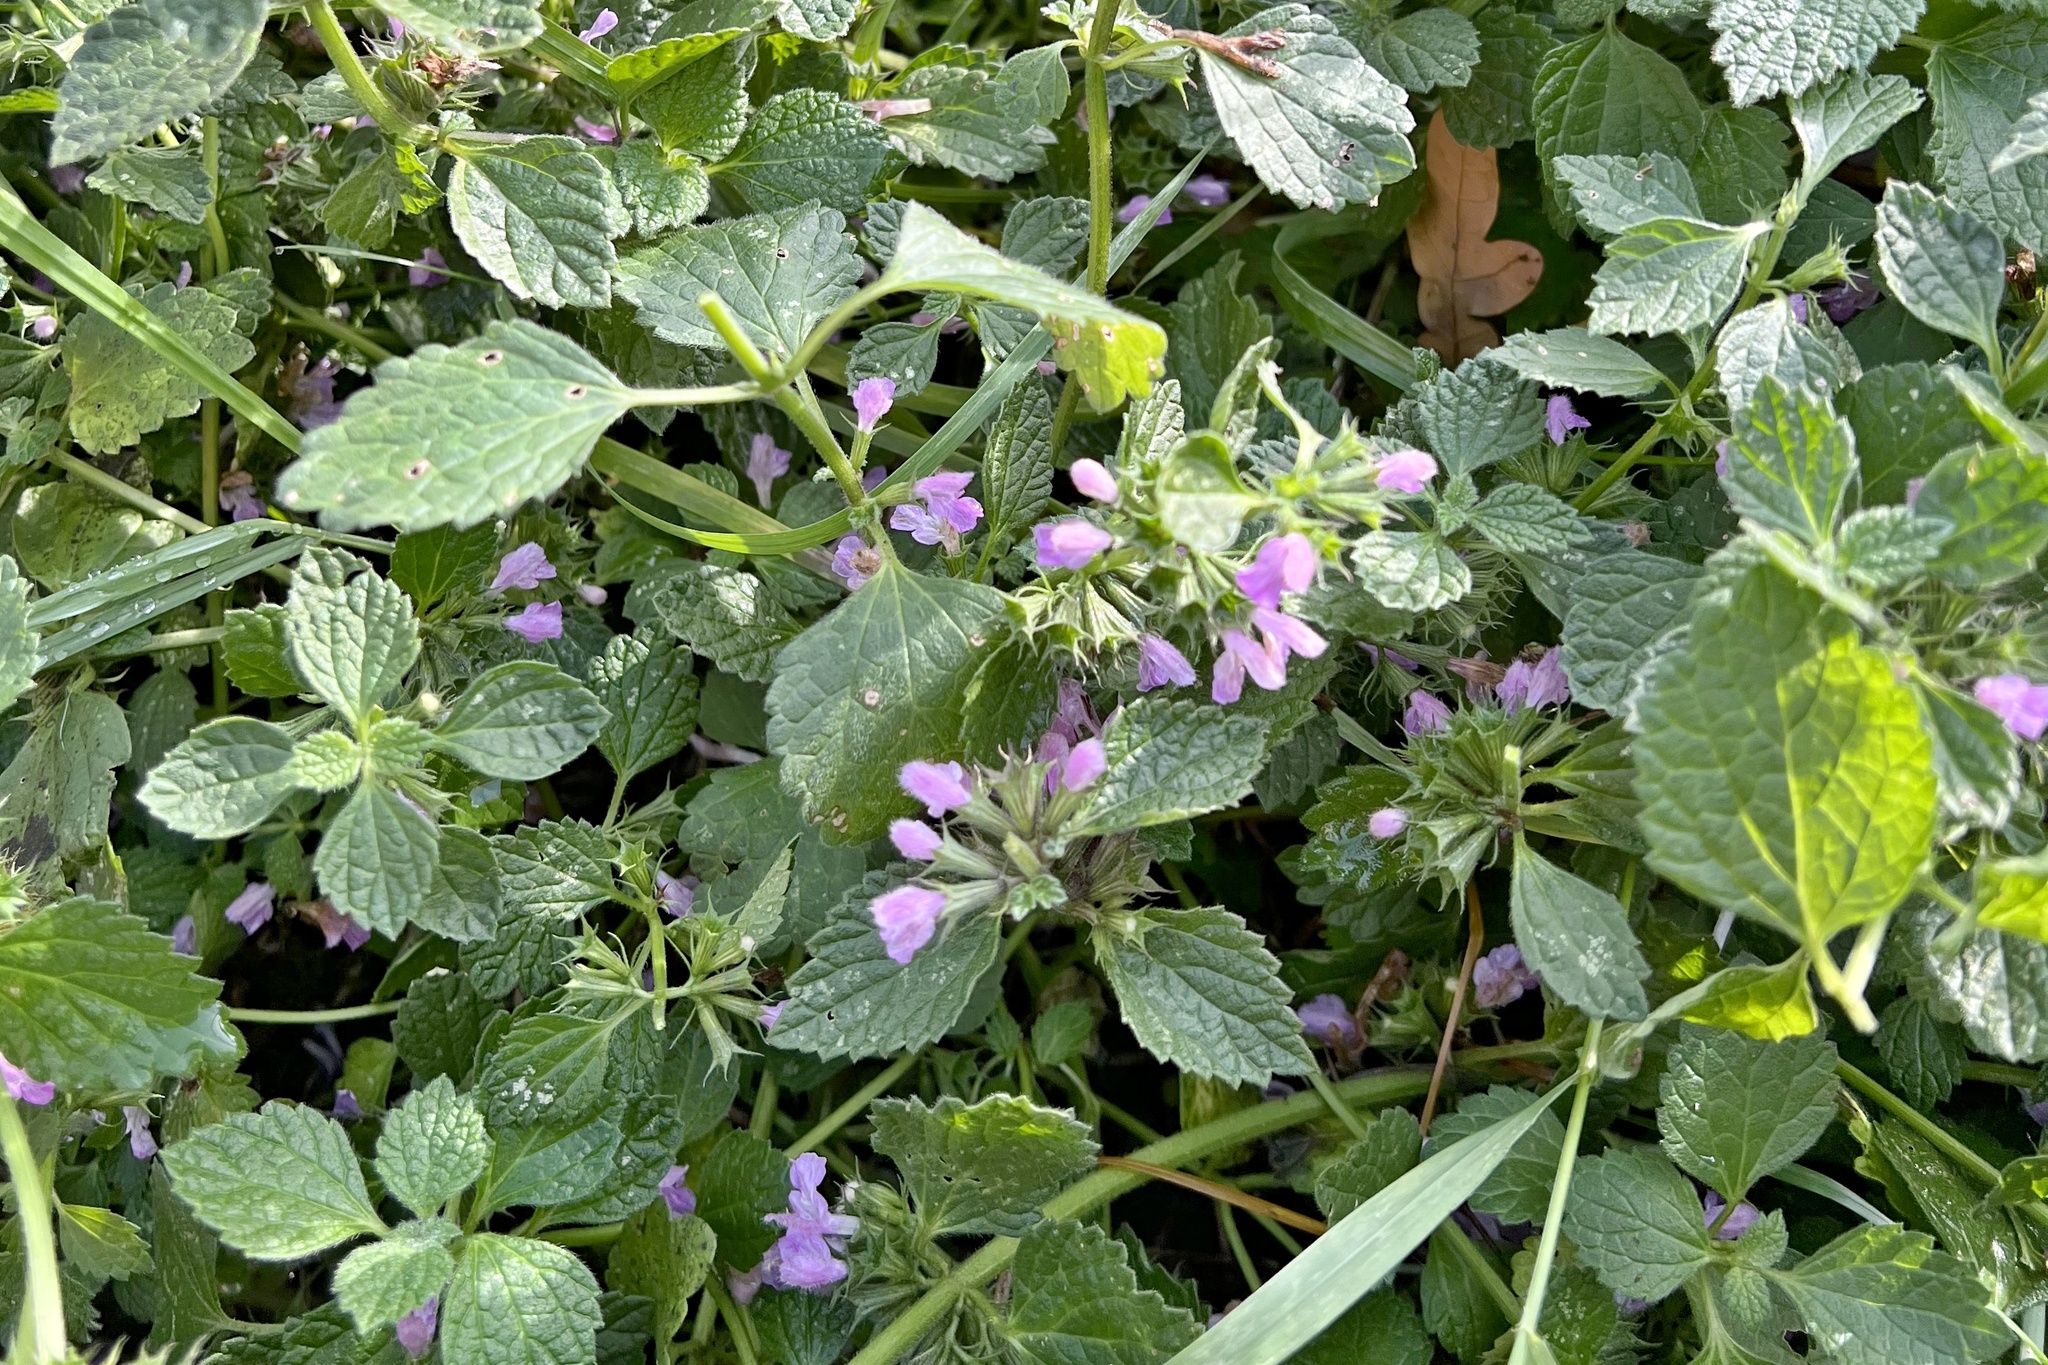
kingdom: Plantae
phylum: Tracheophyta
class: Magnoliopsida
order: Lamiales
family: Lamiaceae
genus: Ballota
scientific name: Ballota nigra
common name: Black horehound
